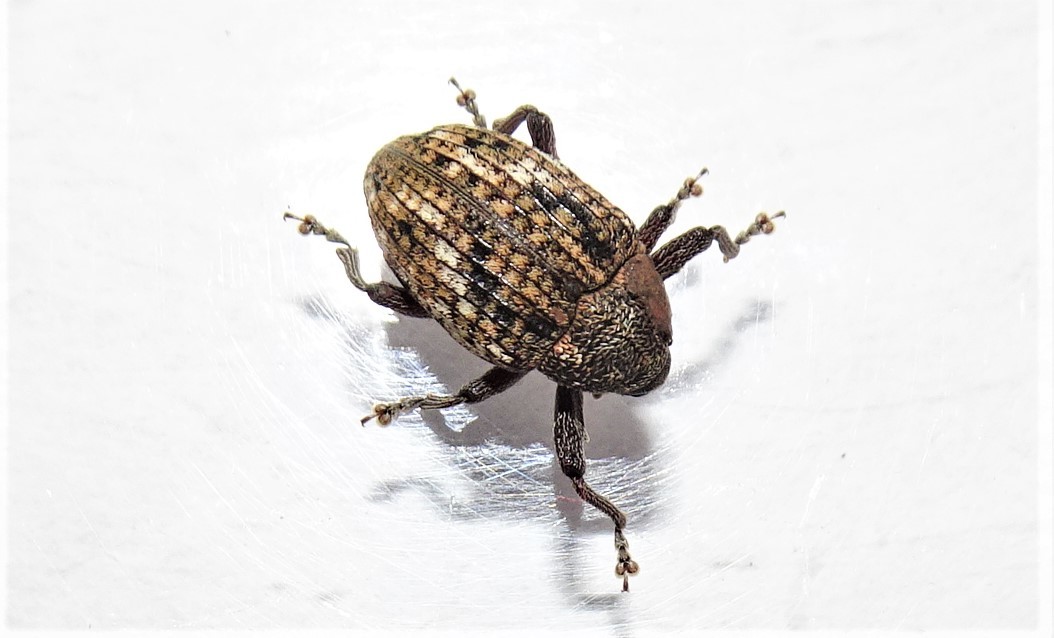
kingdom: Animalia
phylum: Arthropoda
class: Insecta
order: Coleoptera
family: Curculionidae
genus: Tyrtaeosus
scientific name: Tyrtaeosus microthorax
